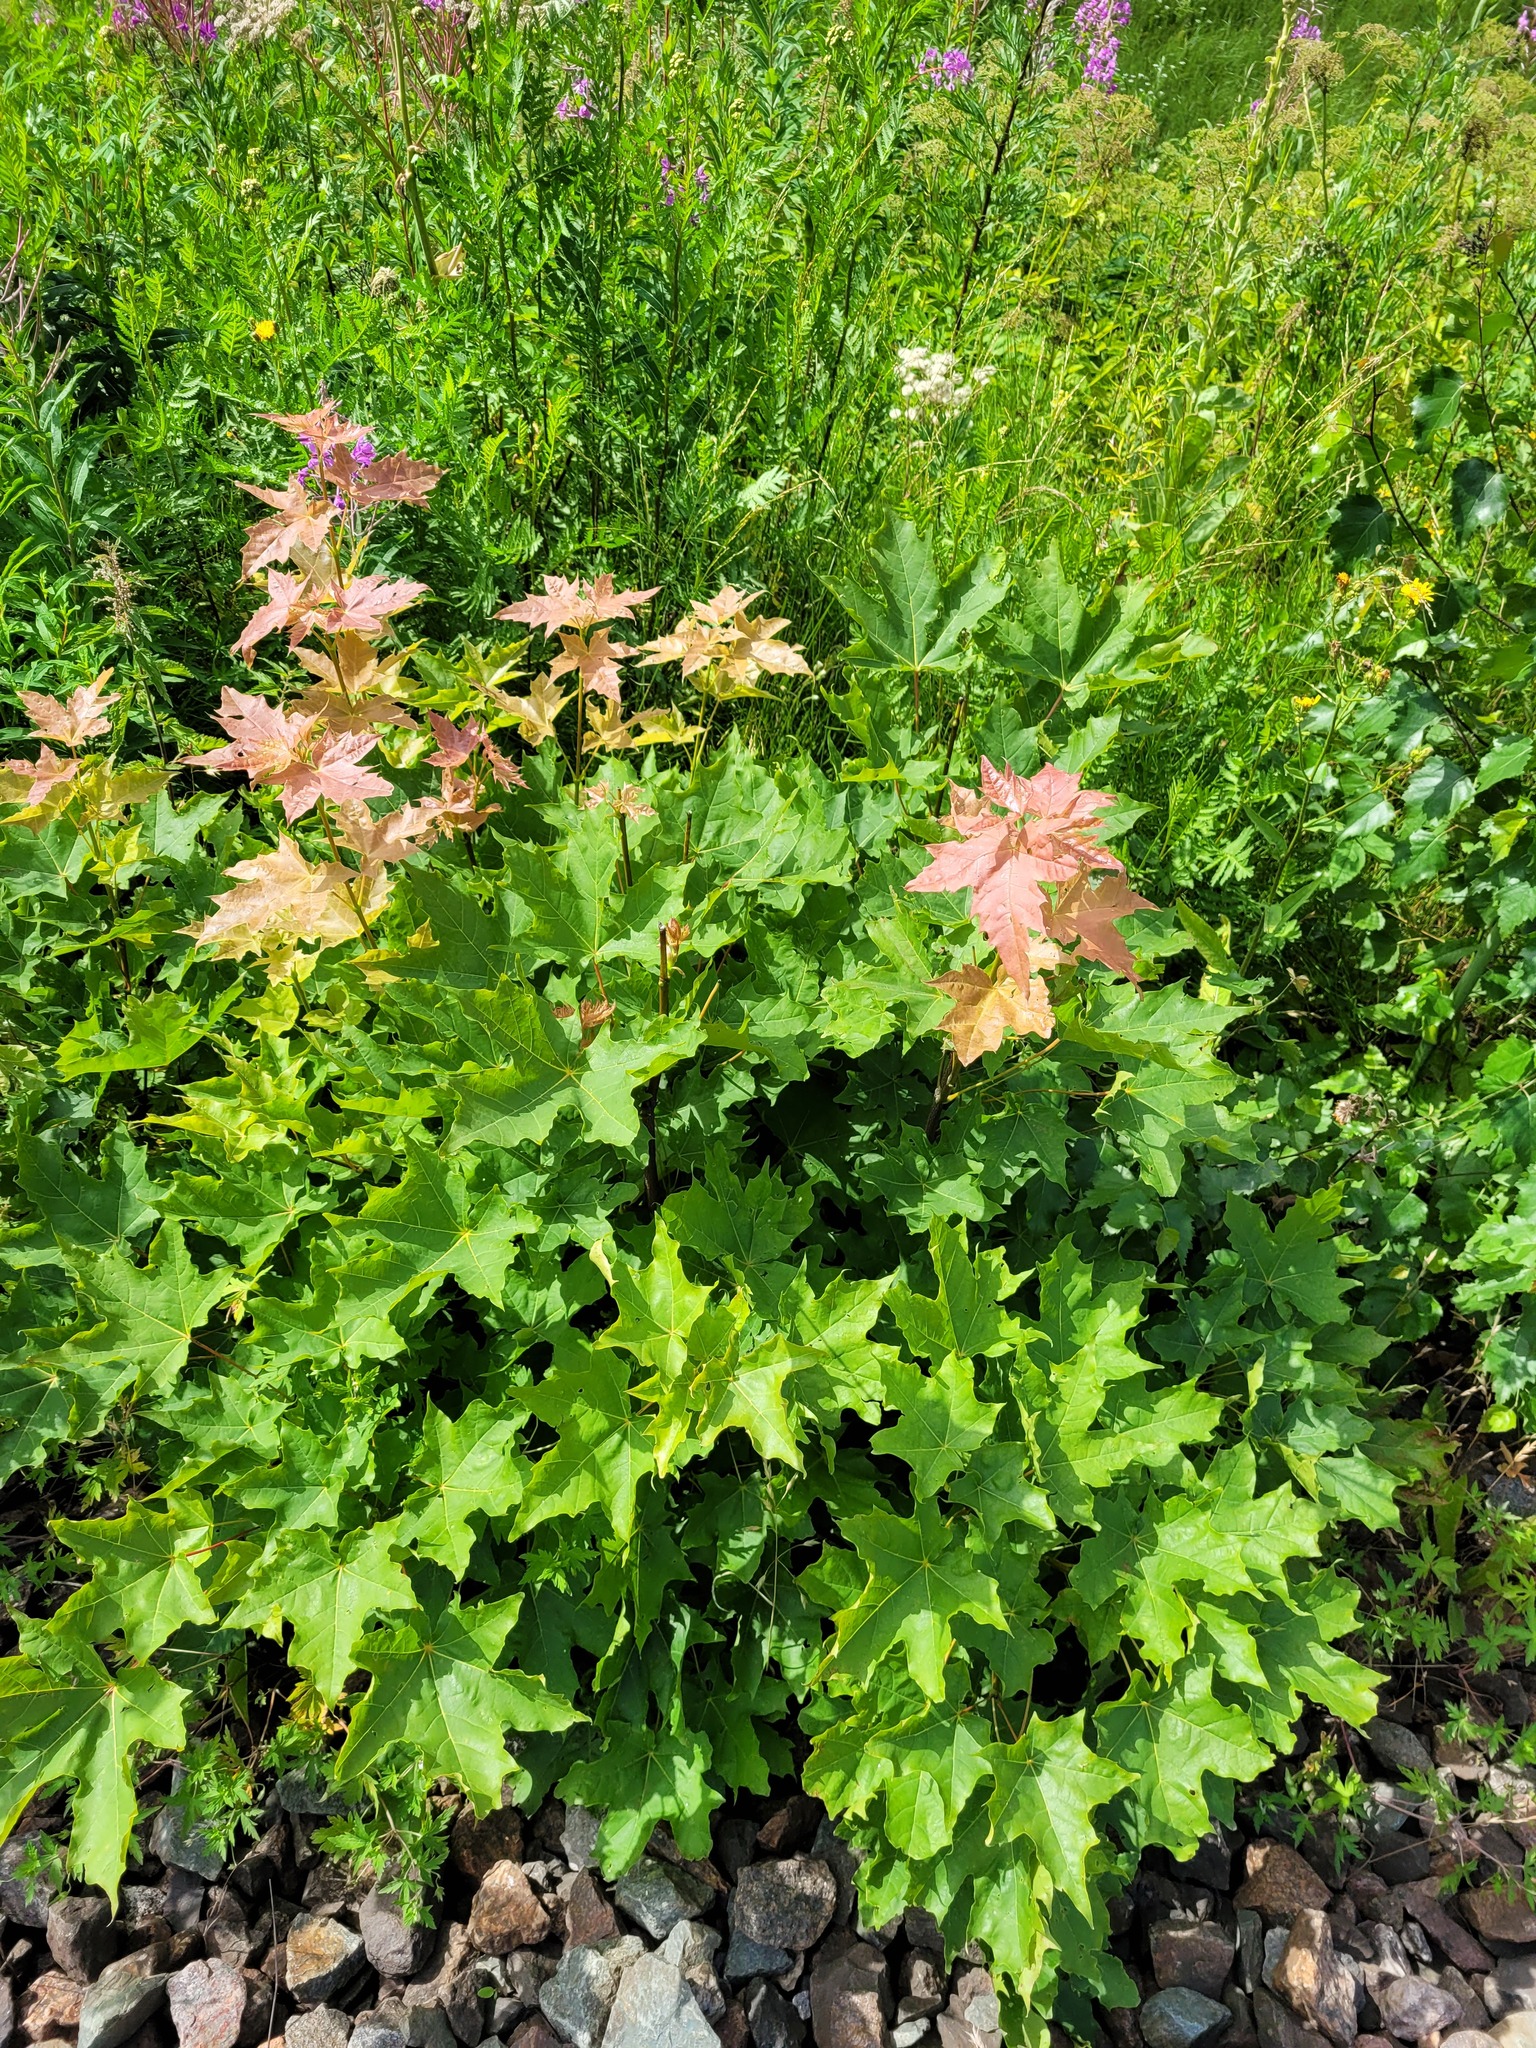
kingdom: Plantae
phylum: Tracheophyta
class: Magnoliopsida
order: Sapindales
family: Sapindaceae
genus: Acer
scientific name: Acer platanoides
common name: Norway maple
